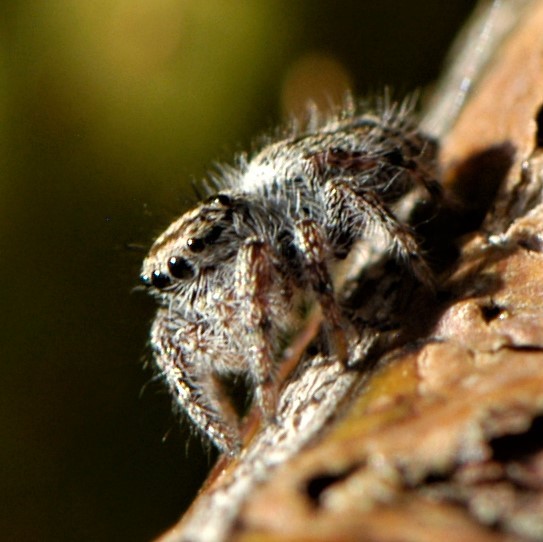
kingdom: Animalia
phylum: Arthropoda
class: Arachnida
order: Araneae
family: Salticidae
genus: Phidippus
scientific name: Phidippus comatus
